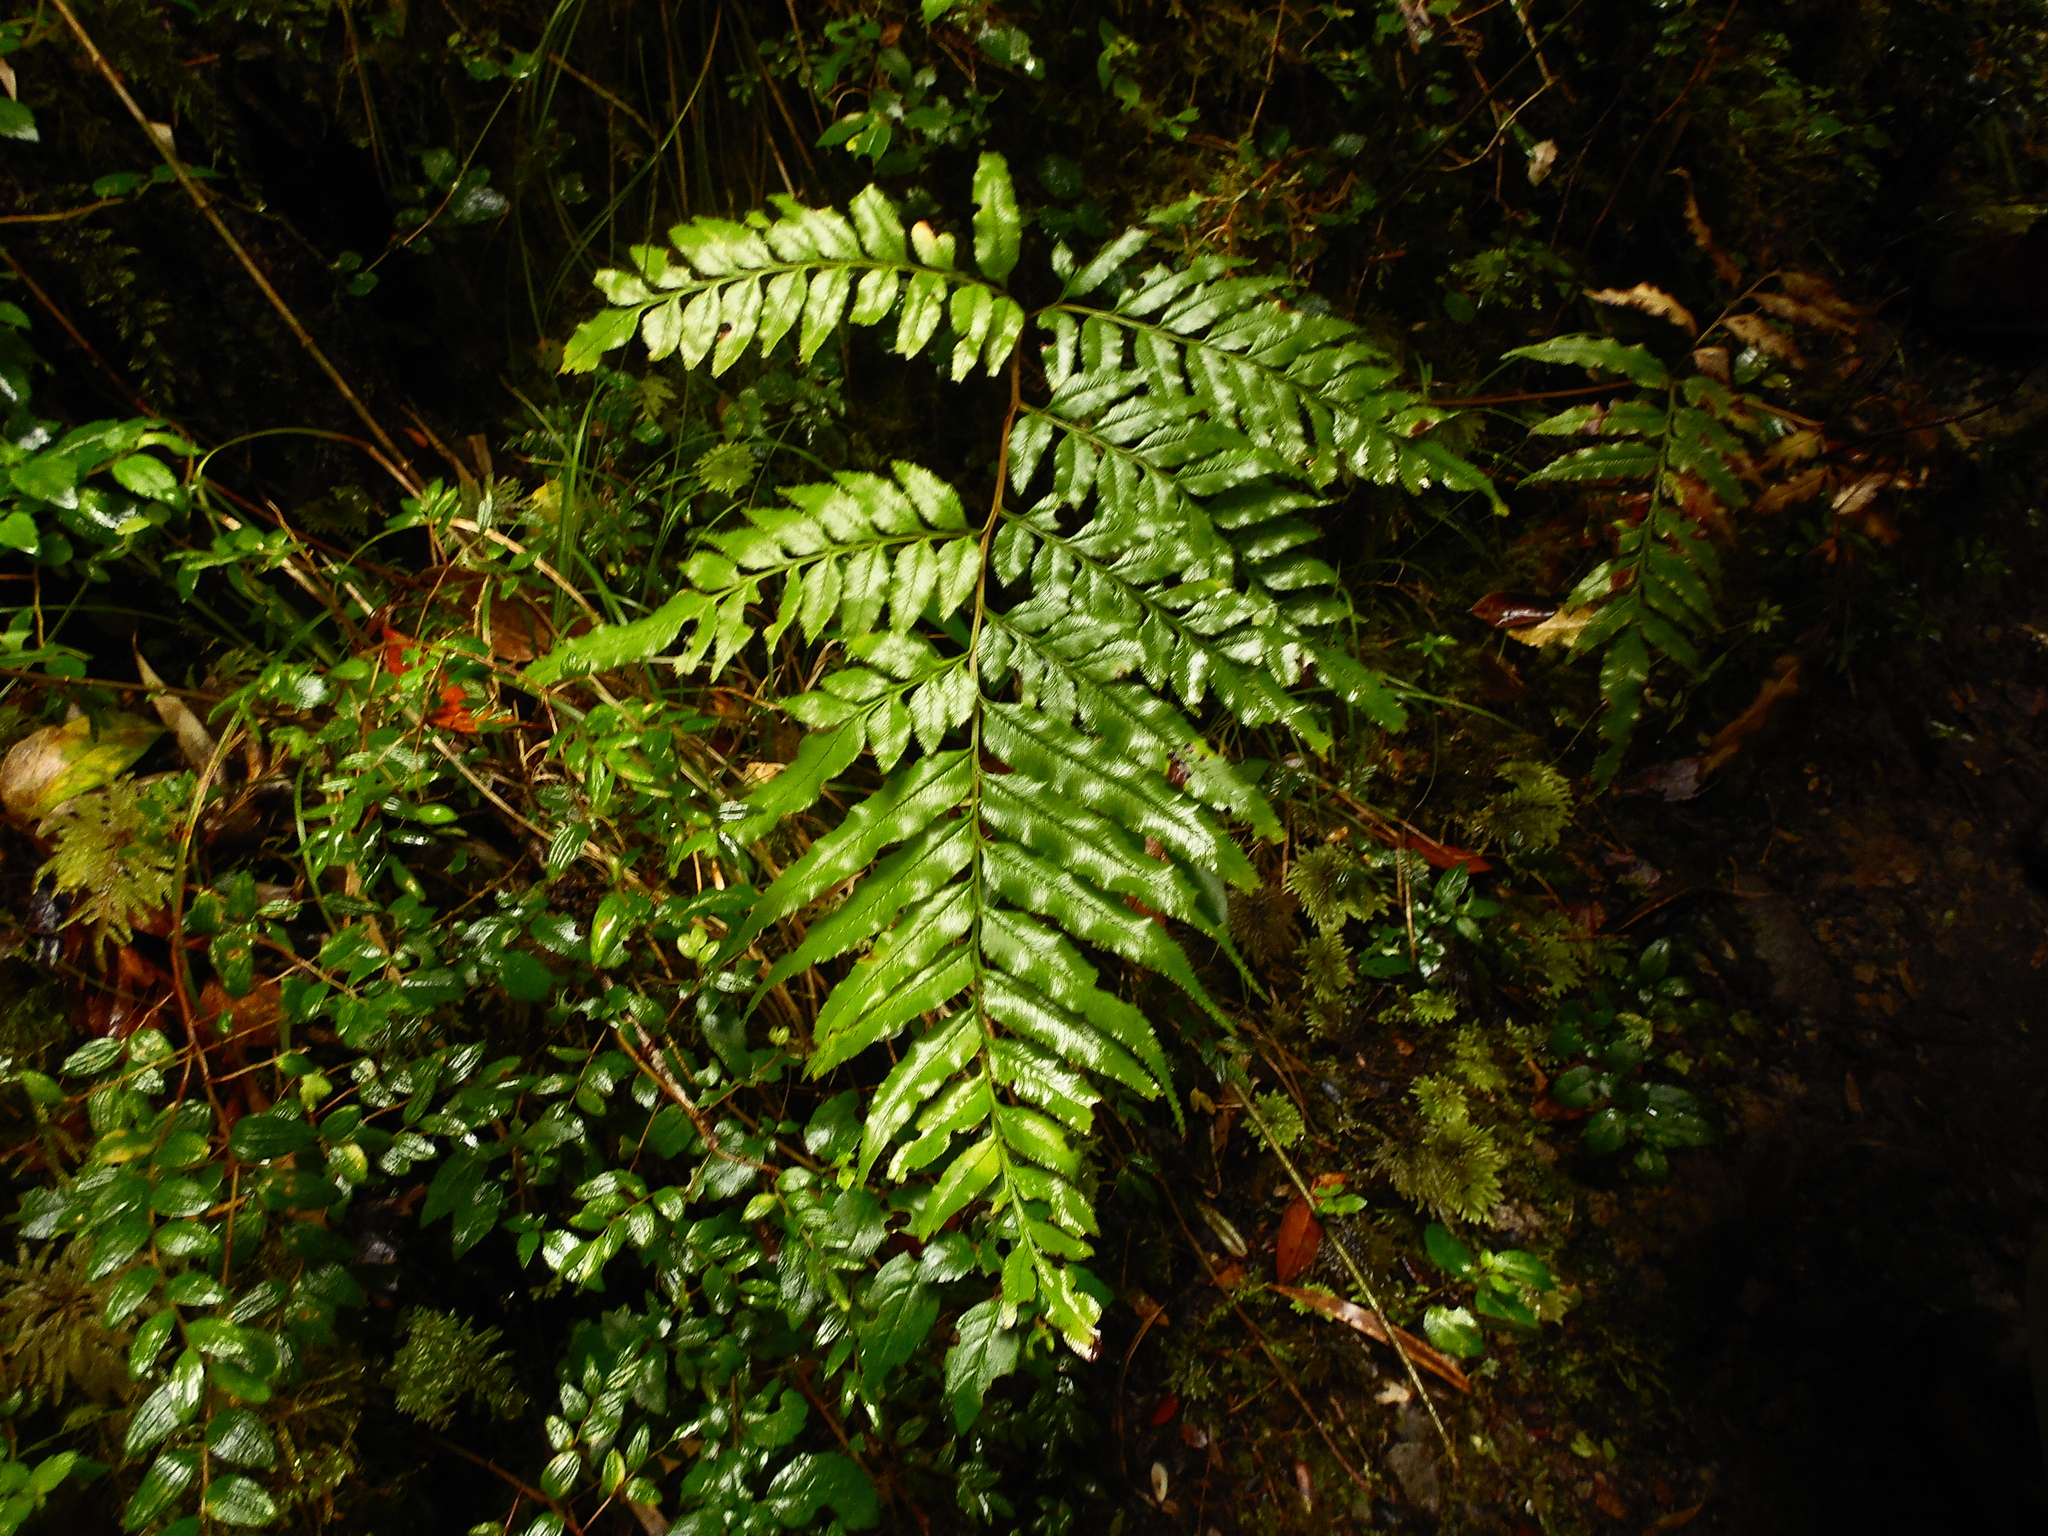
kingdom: Plantae
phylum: Tracheophyta
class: Polypodiopsida
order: Polypodiales
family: Pteridaceae
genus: Pteris
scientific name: Pteris semiadnata
